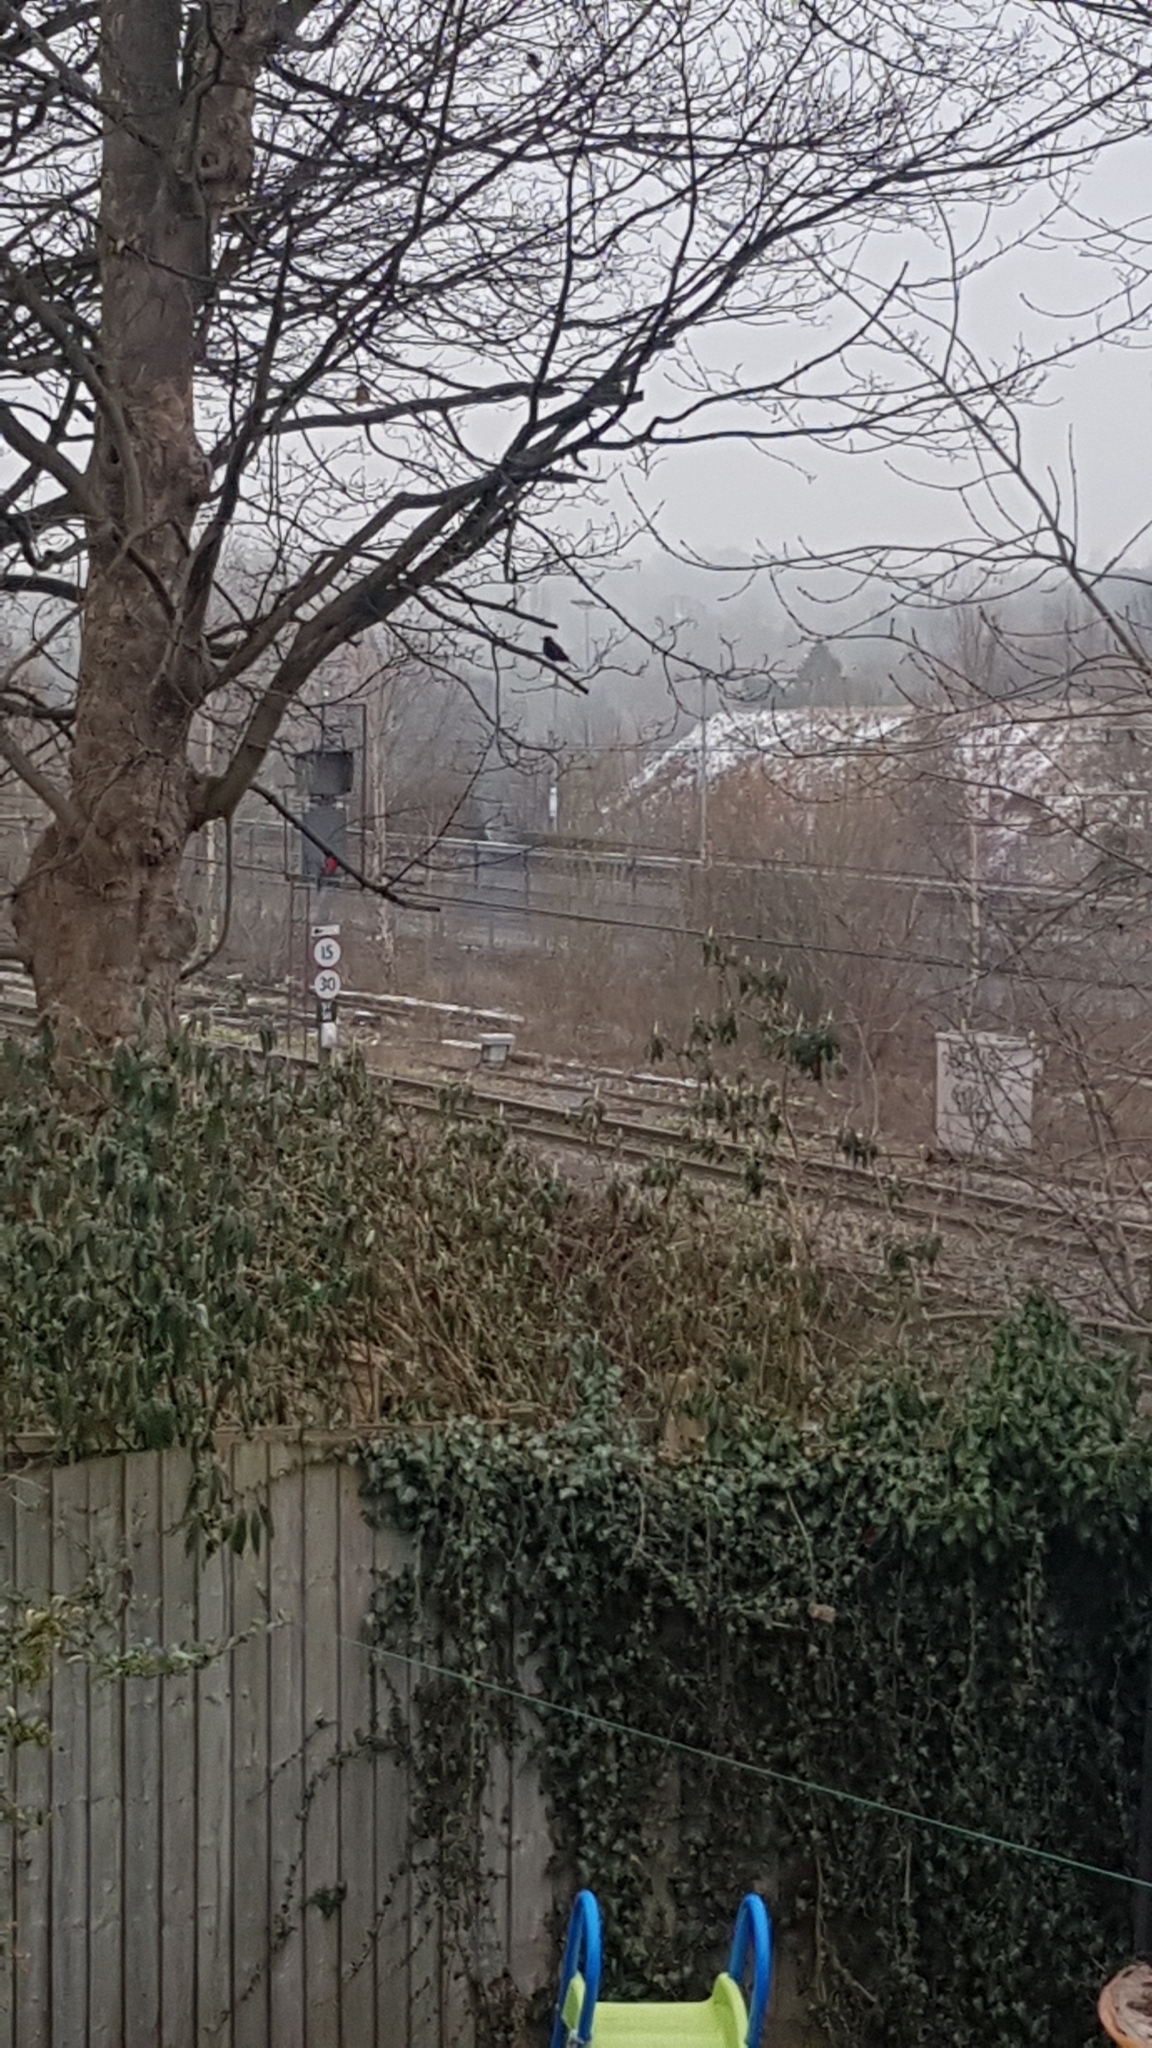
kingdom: Animalia
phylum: Chordata
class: Aves
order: Passeriformes
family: Turdidae
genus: Turdus
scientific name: Turdus merula
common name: Common blackbird
